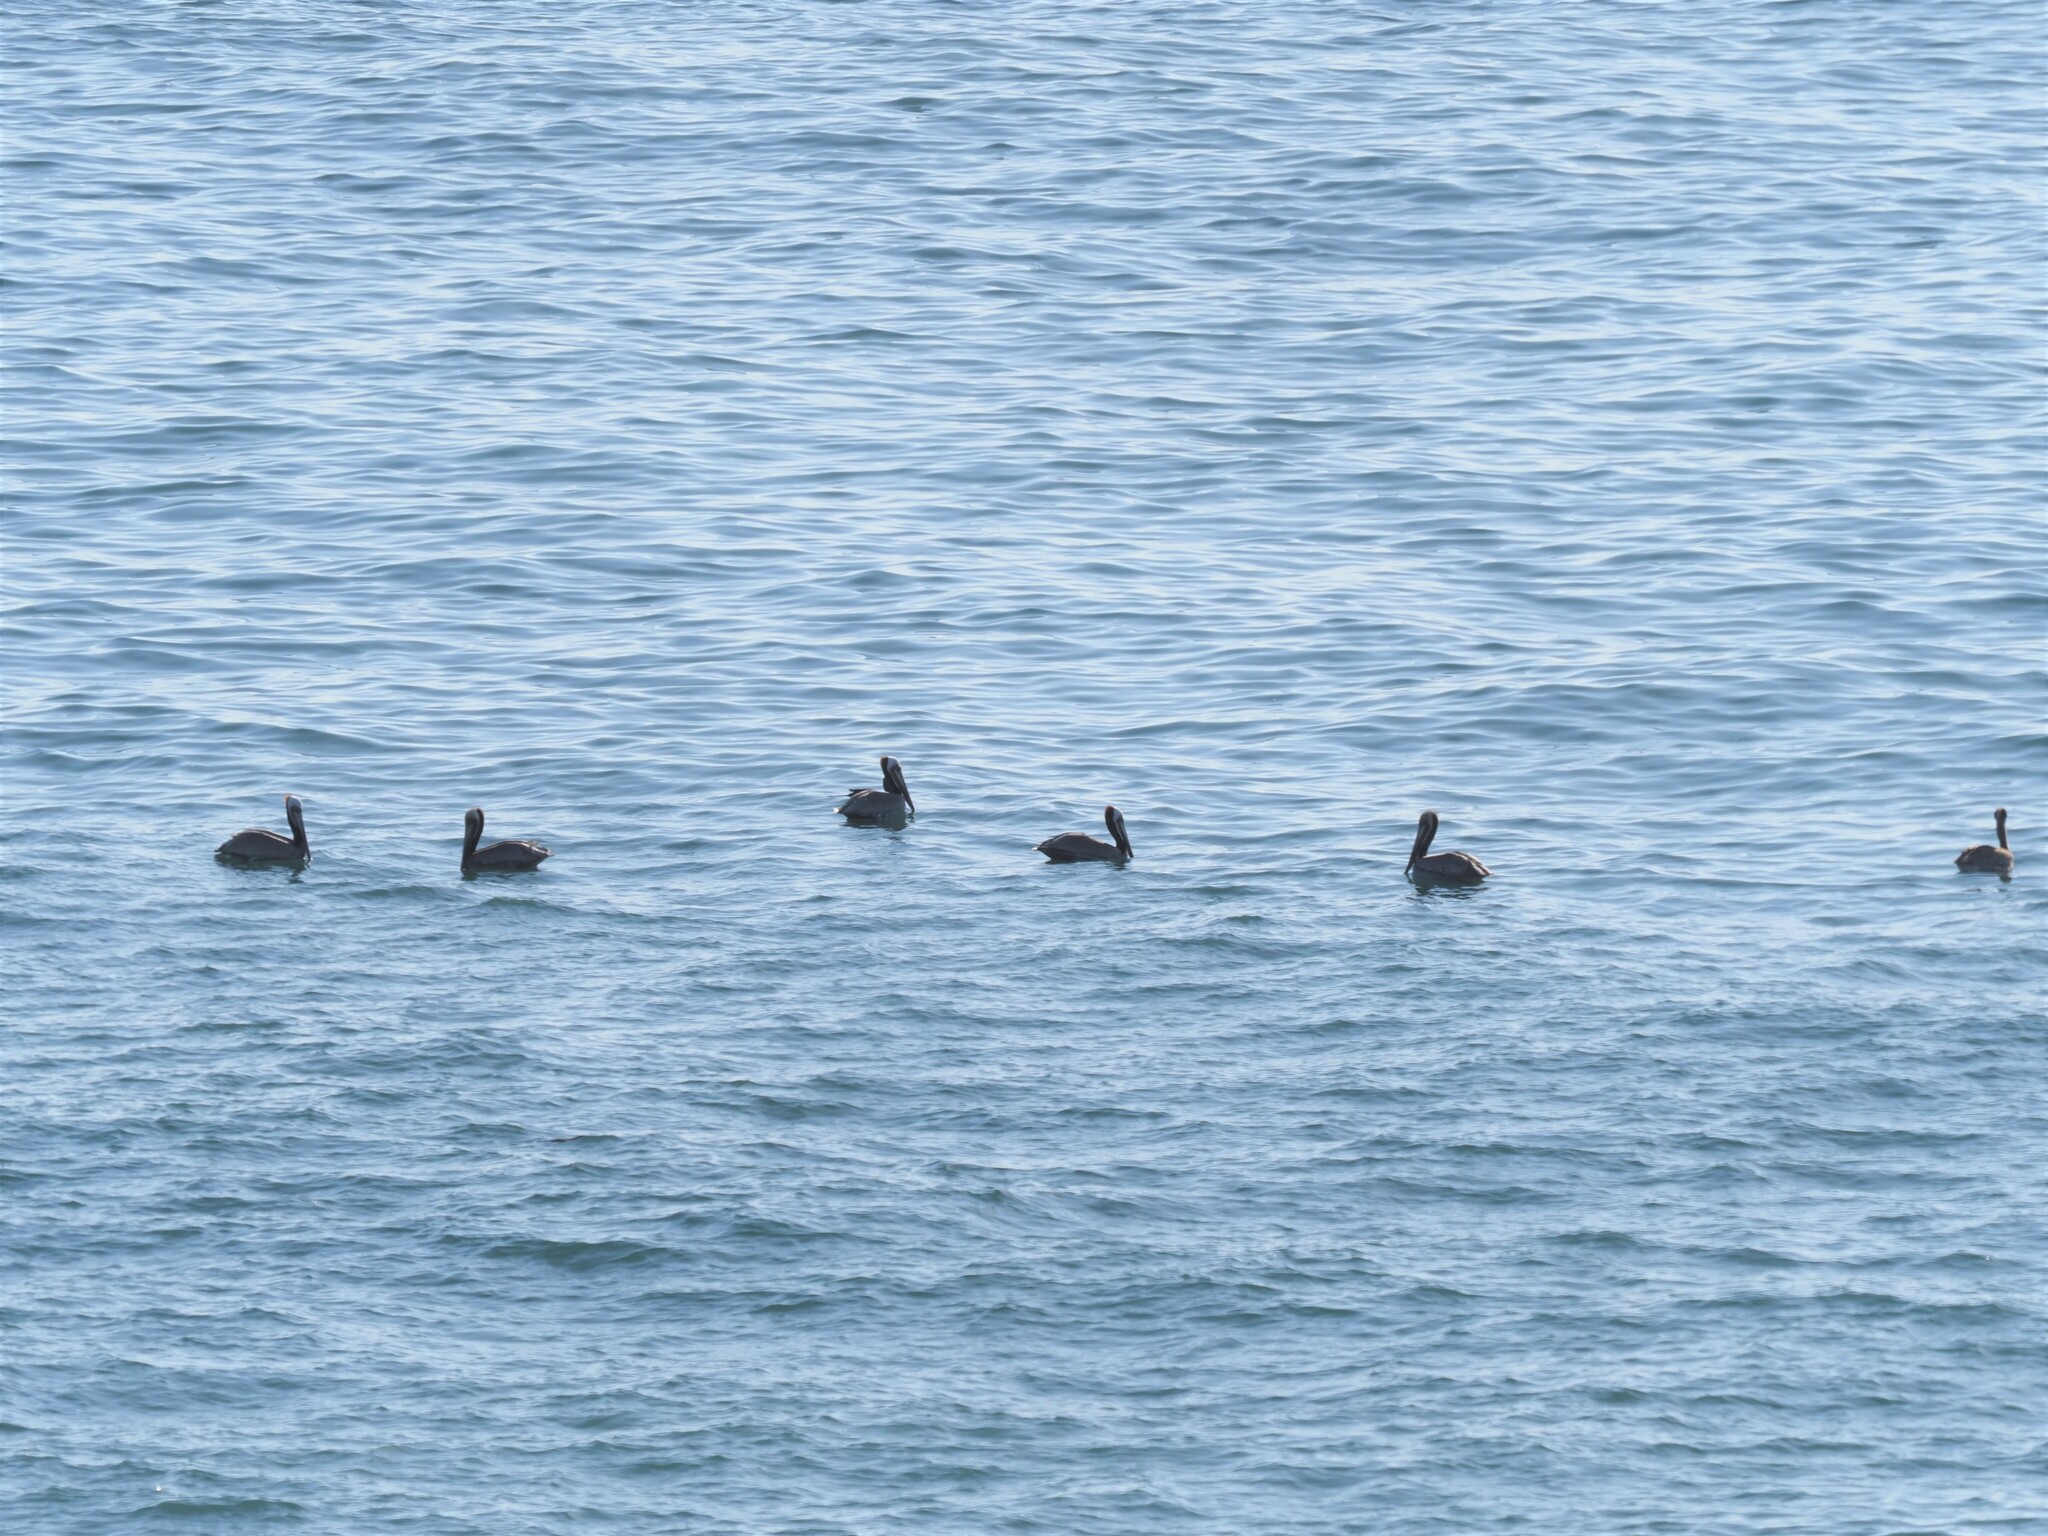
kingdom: Animalia
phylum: Chordata
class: Aves
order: Pelecaniformes
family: Pelecanidae
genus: Pelecanus
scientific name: Pelecanus occidentalis
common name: Brown pelican
